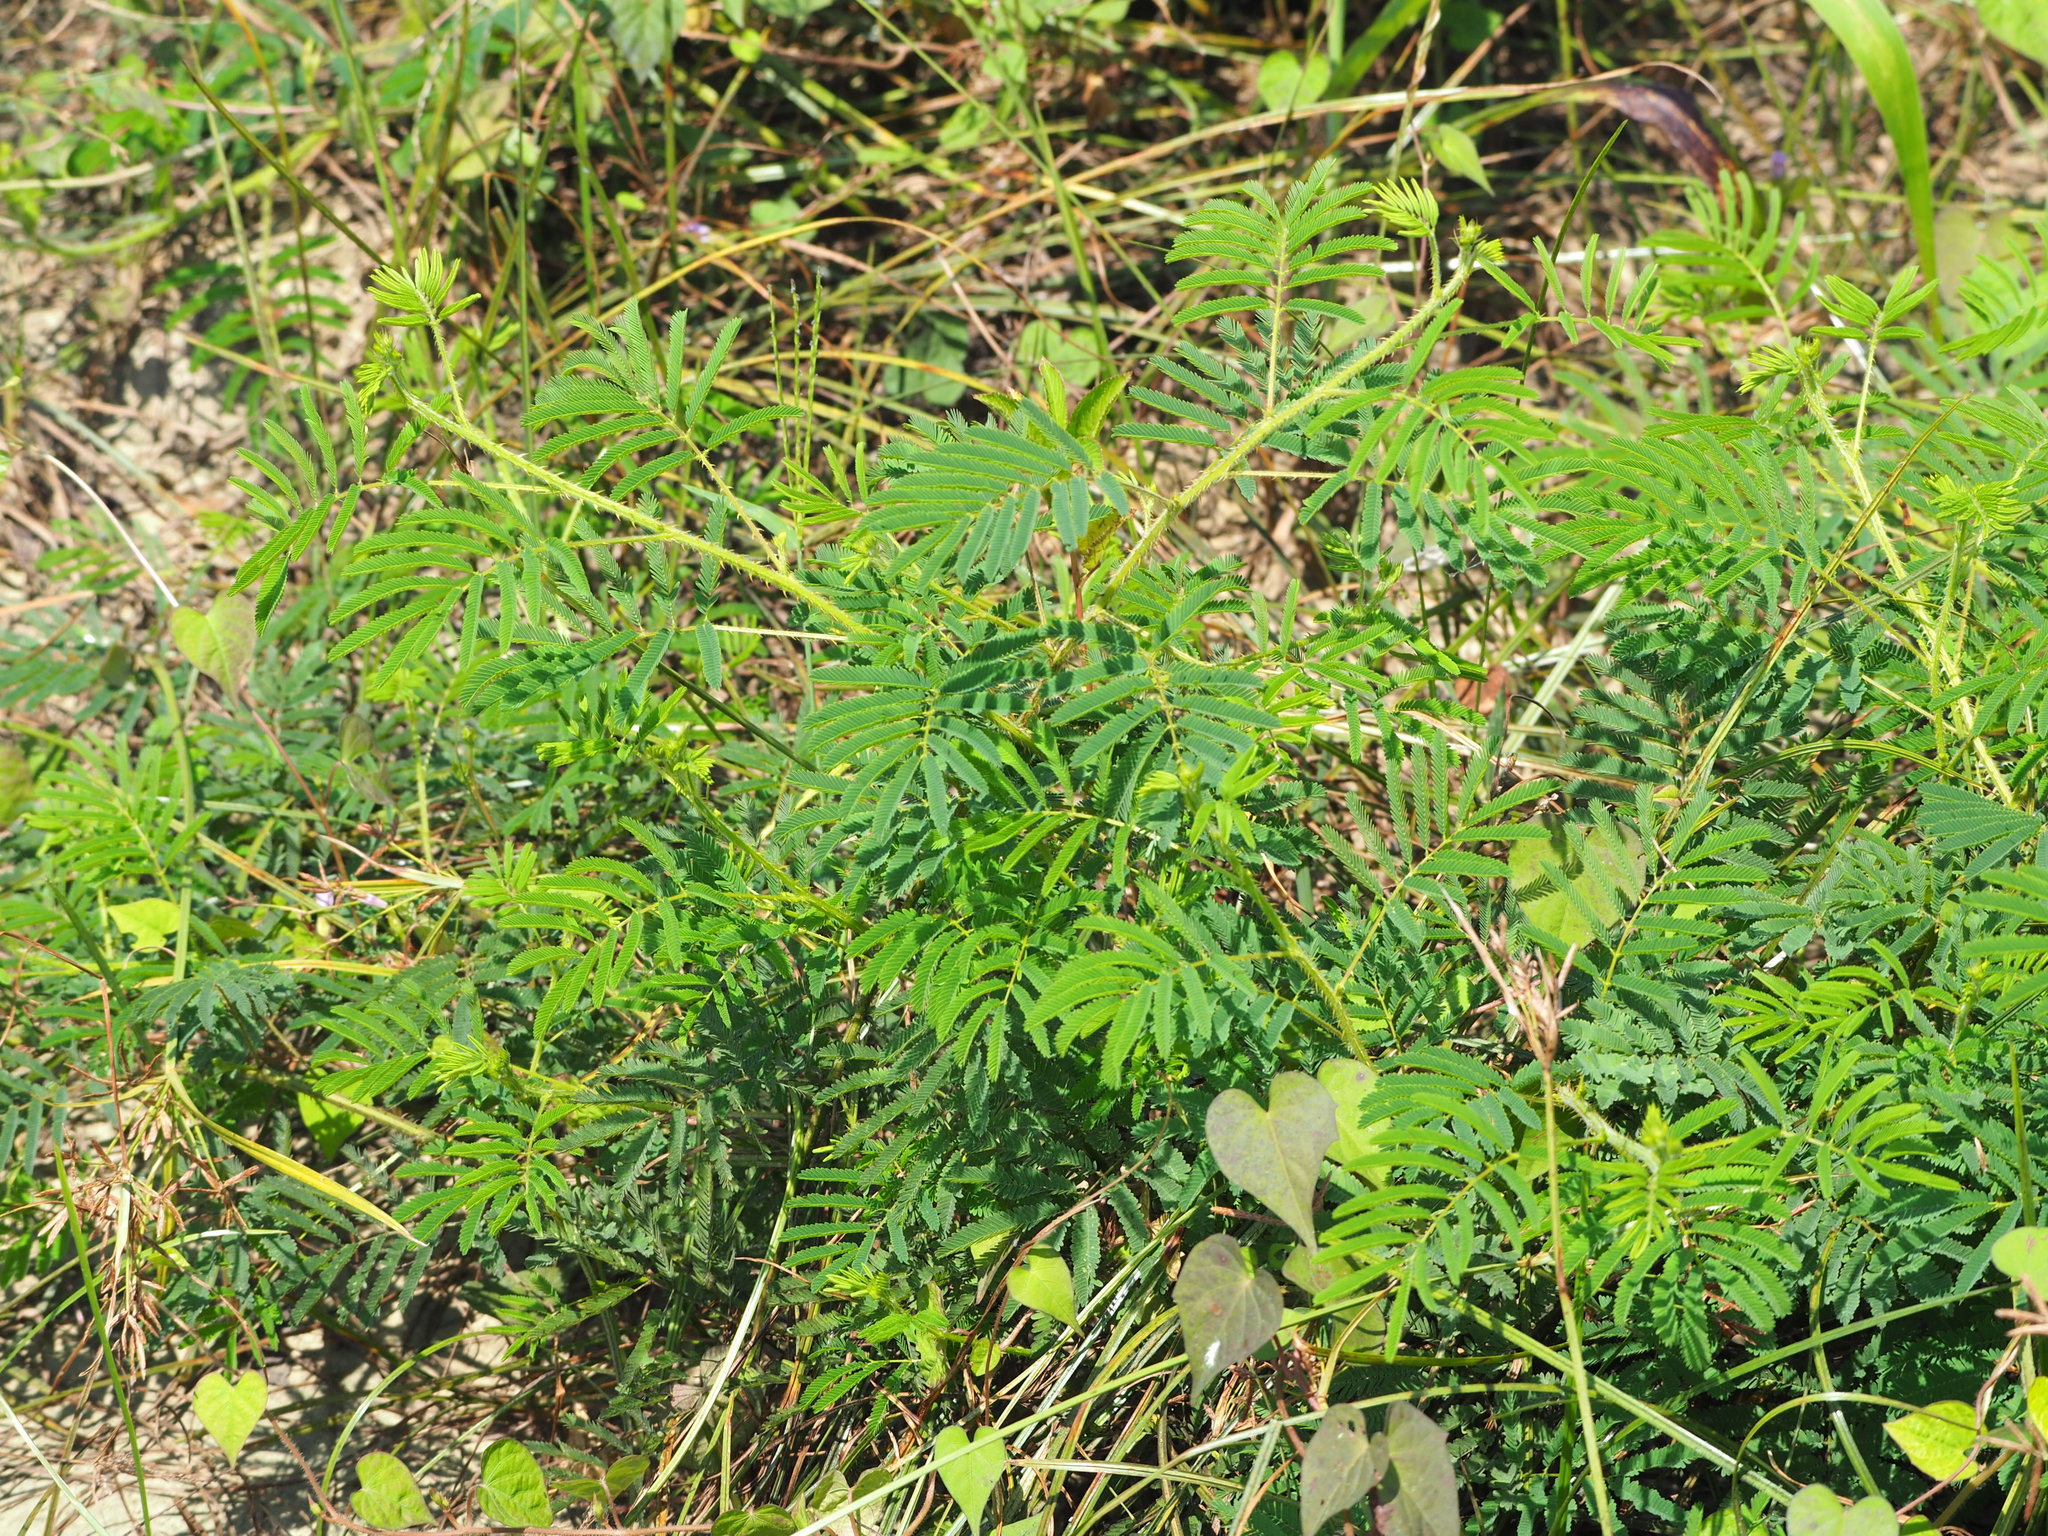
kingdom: Plantae
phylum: Tracheophyta
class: Magnoliopsida
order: Fabales
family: Fabaceae
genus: Mimosa
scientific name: Mimosa diplotricha
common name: Giant sensitive-plant
